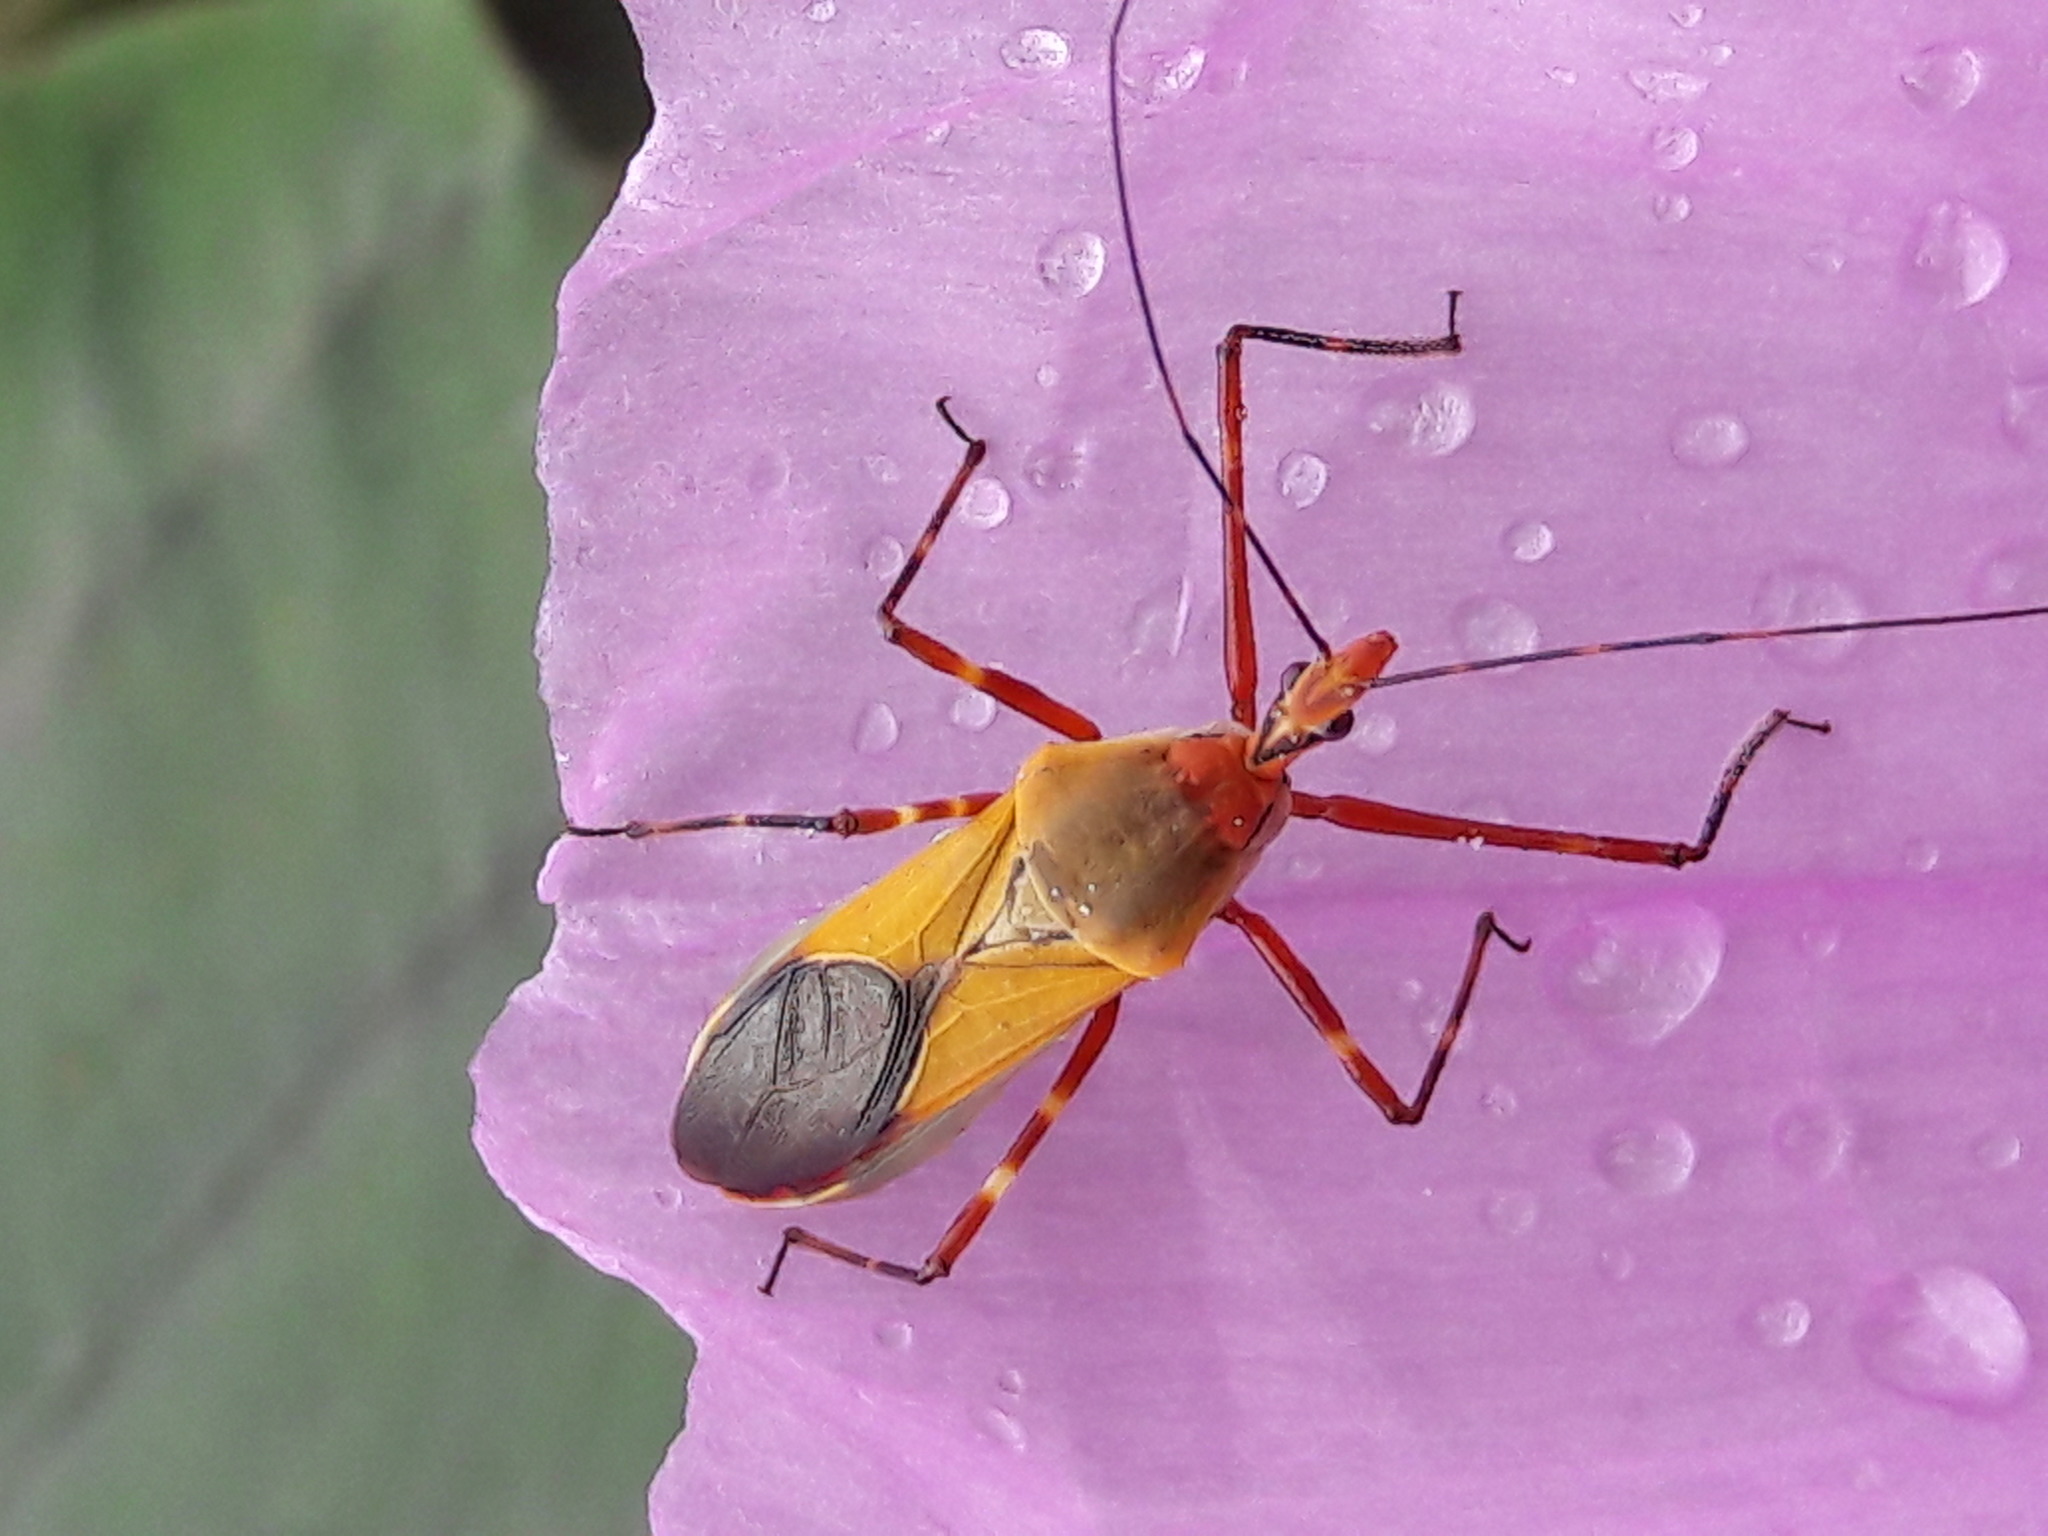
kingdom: Animalia
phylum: Arthropoda
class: Insecta
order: Hemiptera
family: Reduviidae
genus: Zelus
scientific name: Zelus laticornis
